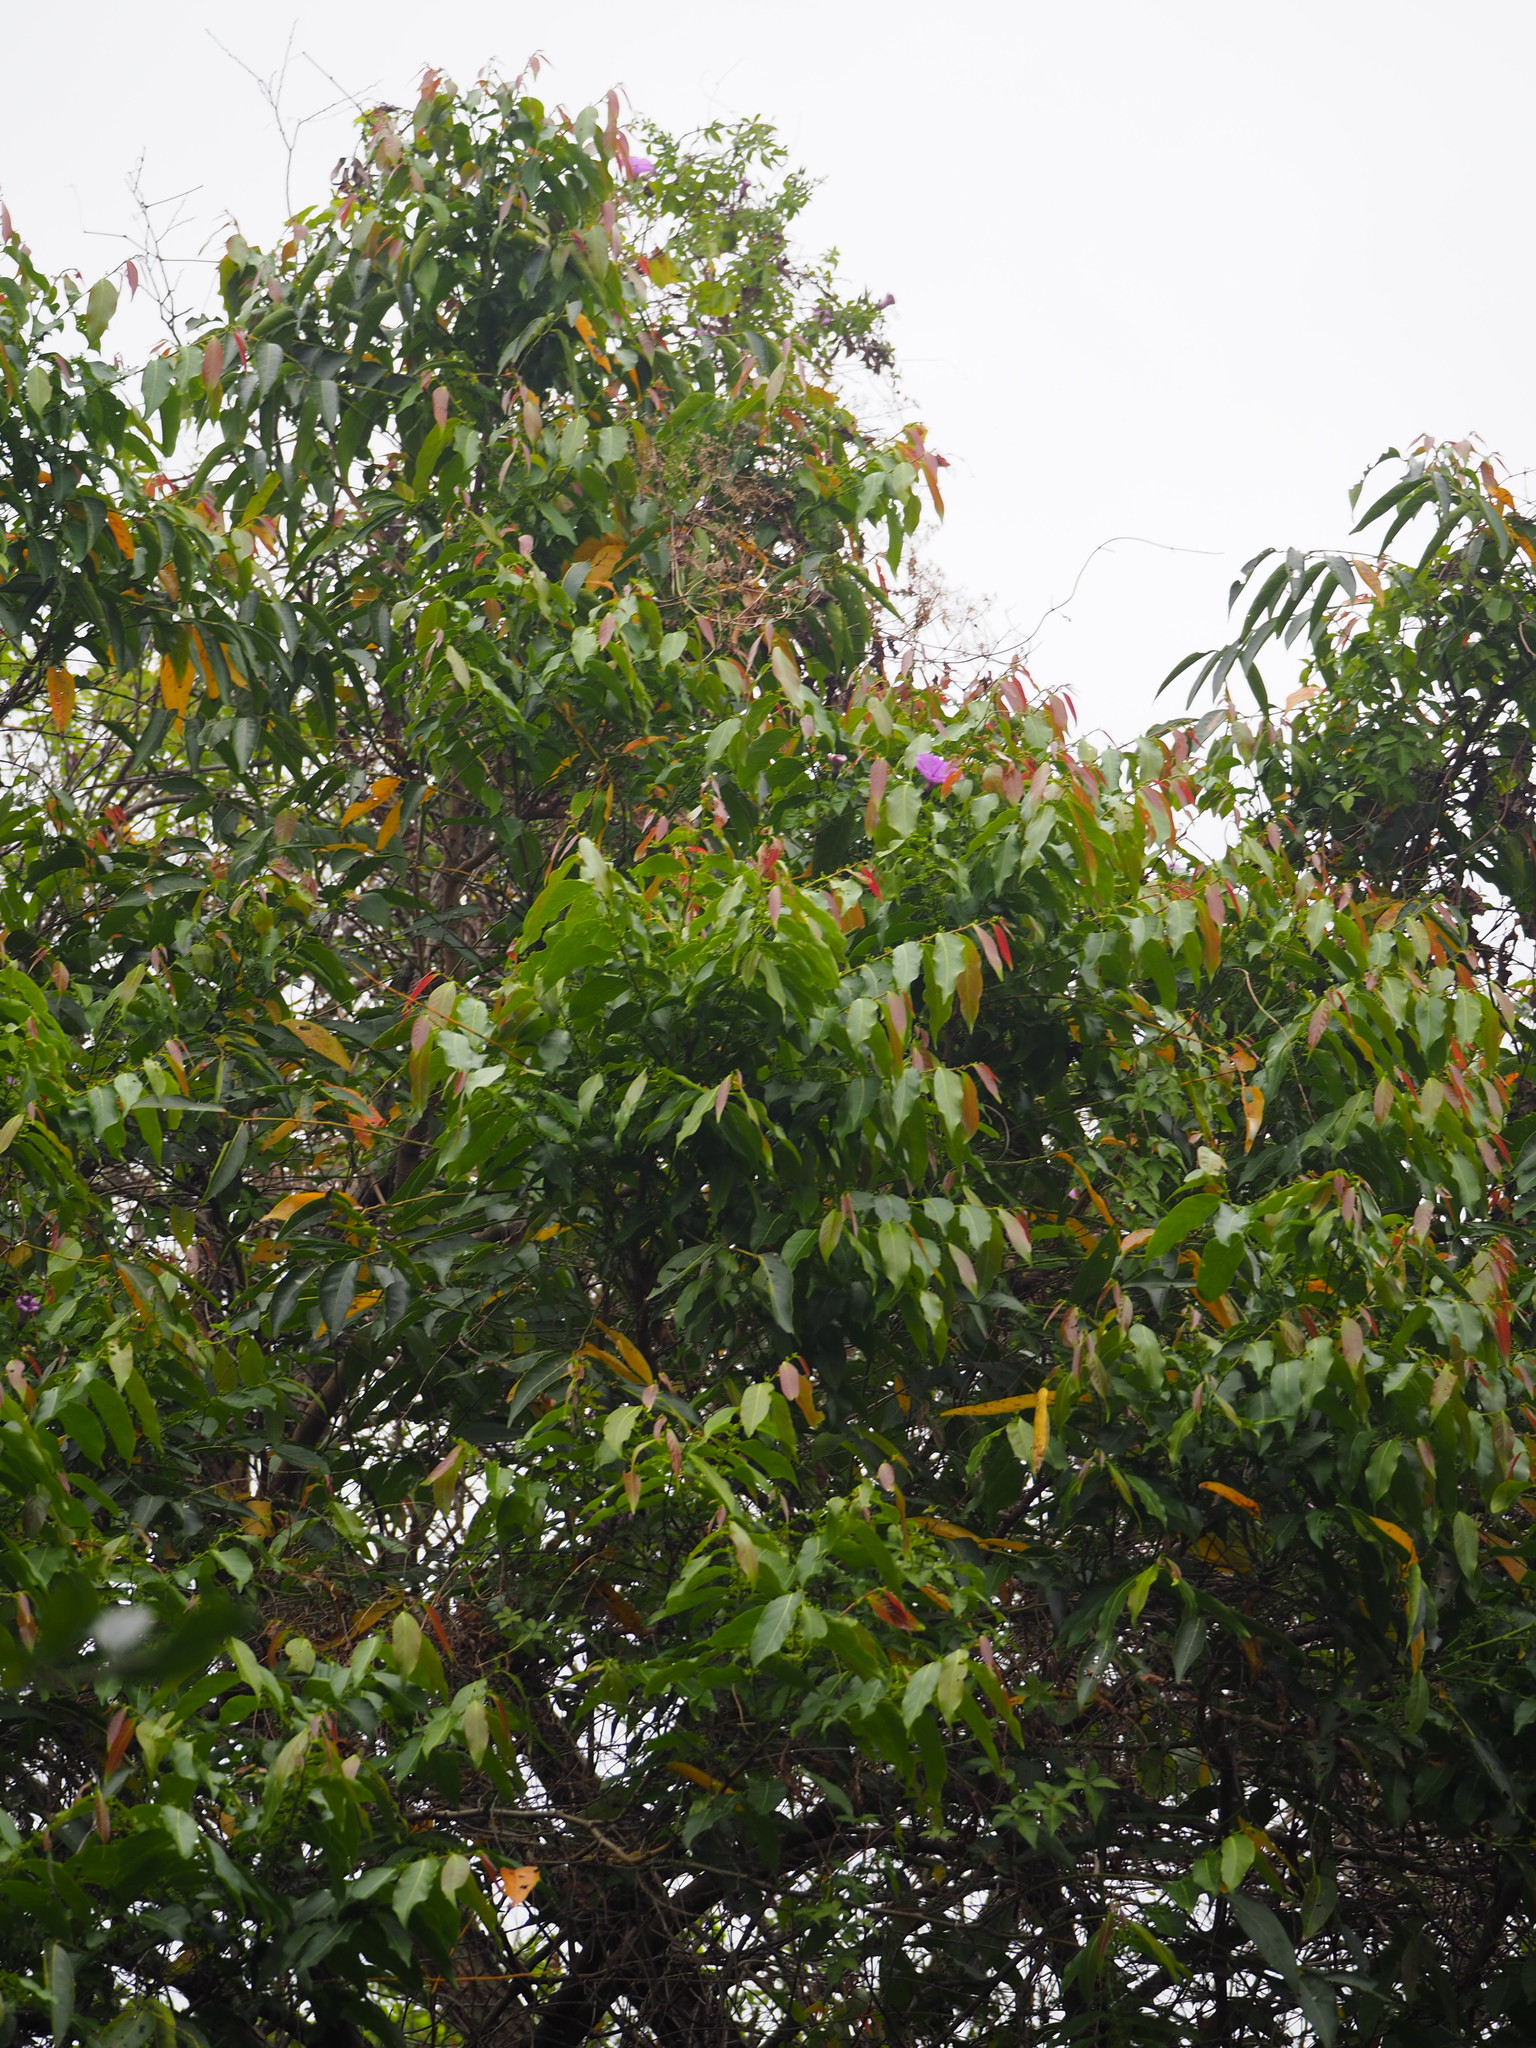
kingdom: Plantae
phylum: Tracheophyta
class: Magnoliopsida
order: Malpighiales
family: Phyllanthaceae
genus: Glochidion
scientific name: Glochidion lanceolatum
